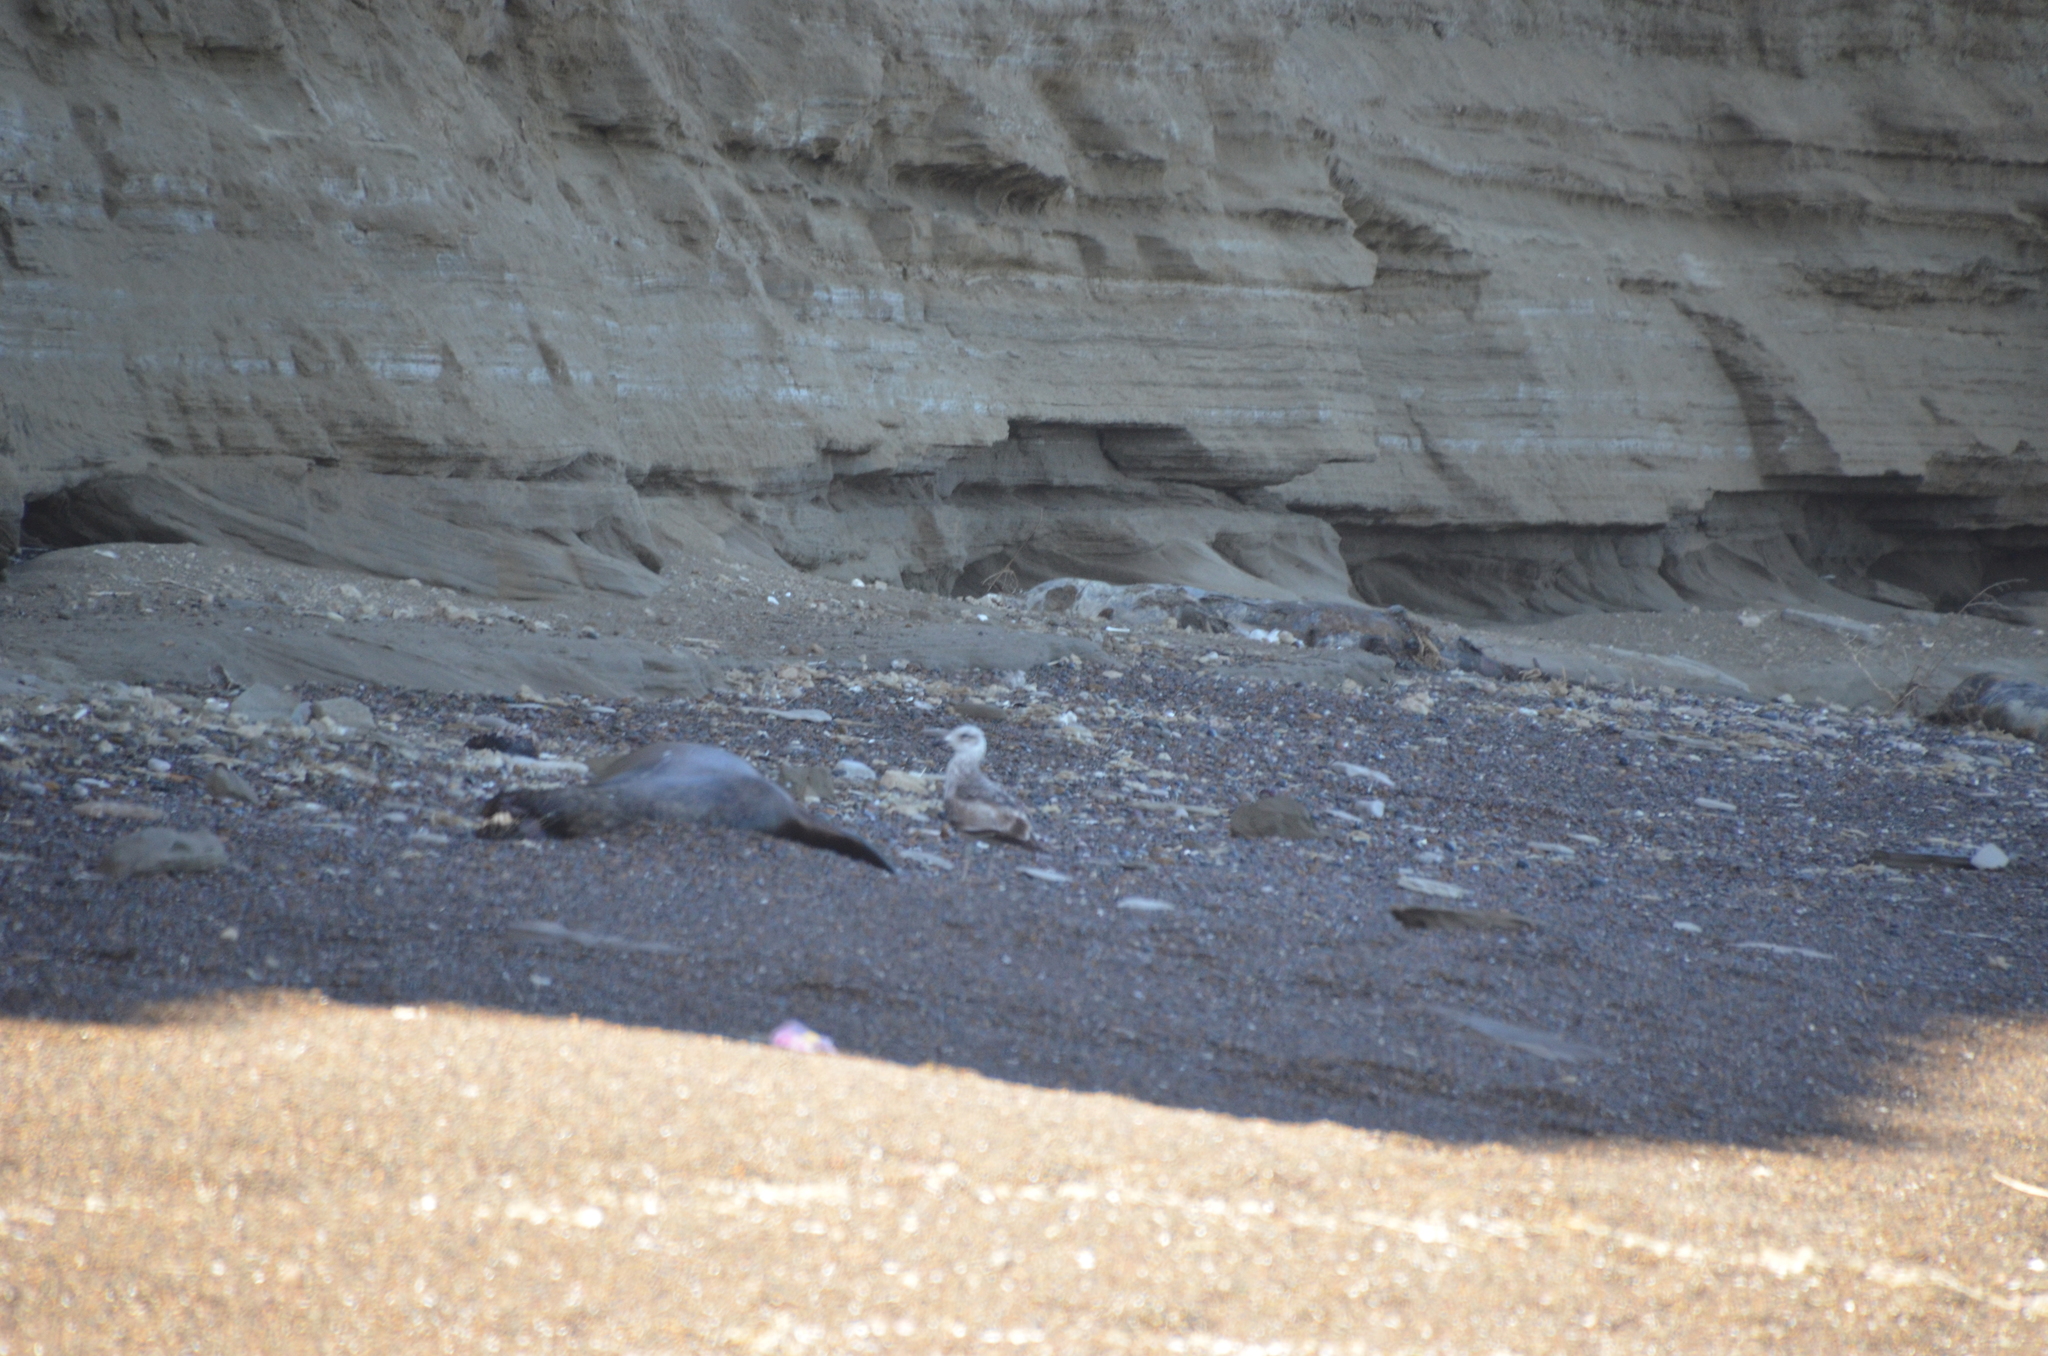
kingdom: Animalia
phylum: Chordata
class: Aves
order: Charadriiformes
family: Laridae
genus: Larus
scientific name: Larus dominicanus
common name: Kelp gull
